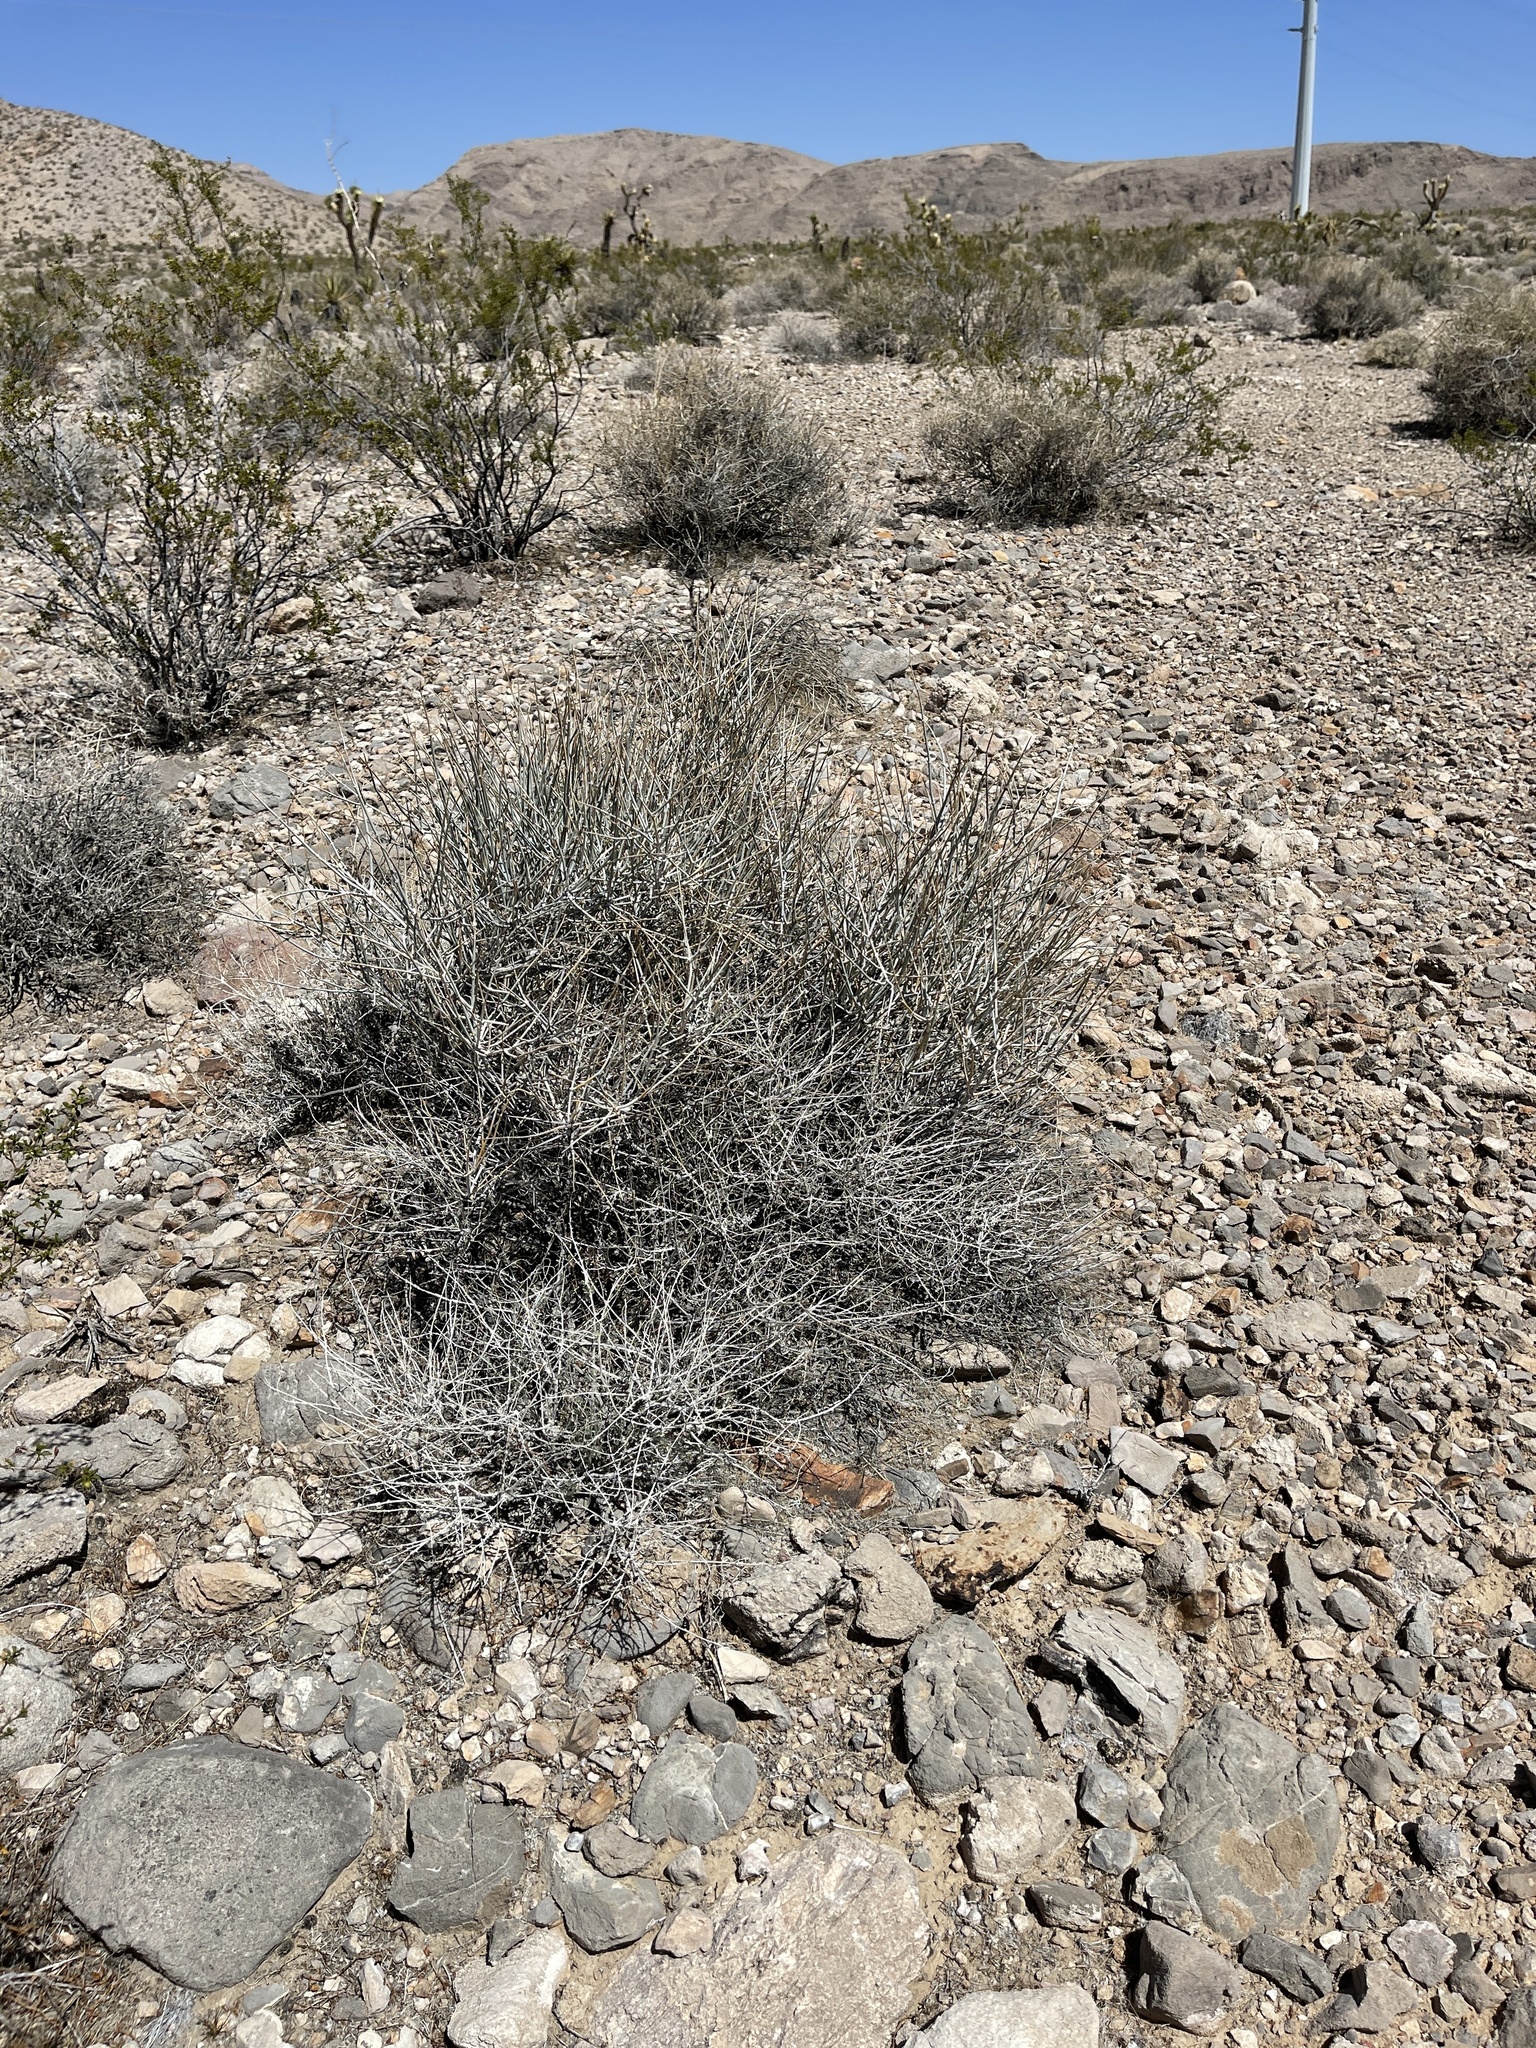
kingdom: Plantae
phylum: Tracheophyta
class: Gnetopsida
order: Ephedrales
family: Ephedraceae
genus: Ephedra
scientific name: Ephedra nevadensis
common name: Gray ephedra
